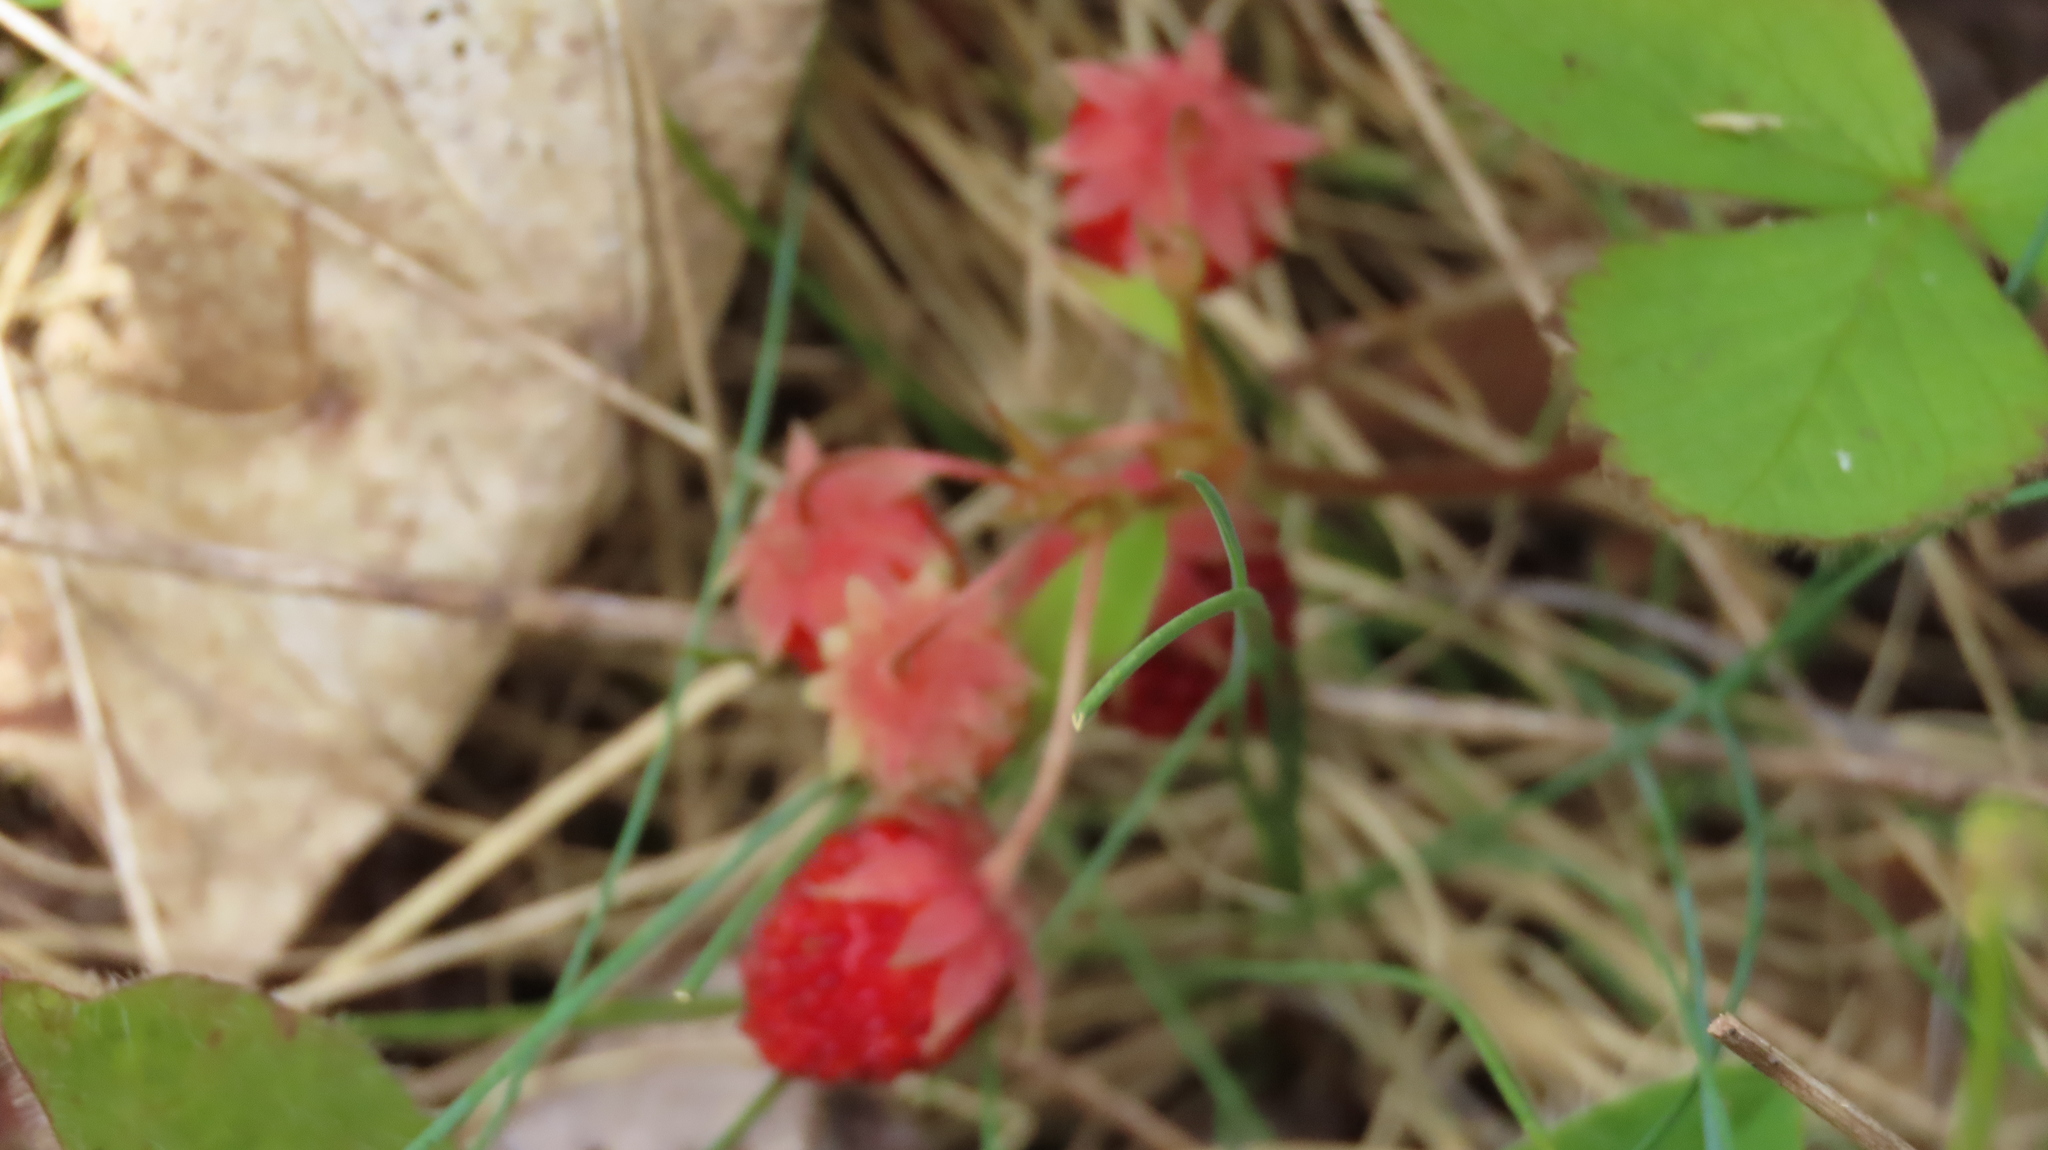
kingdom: Plantae
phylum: Tracheophyta
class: Magnoliopsida
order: Rosales
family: Rosaceae
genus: Fragaria
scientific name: Fragaria virginiana
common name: Thickleaved wild strawberry
